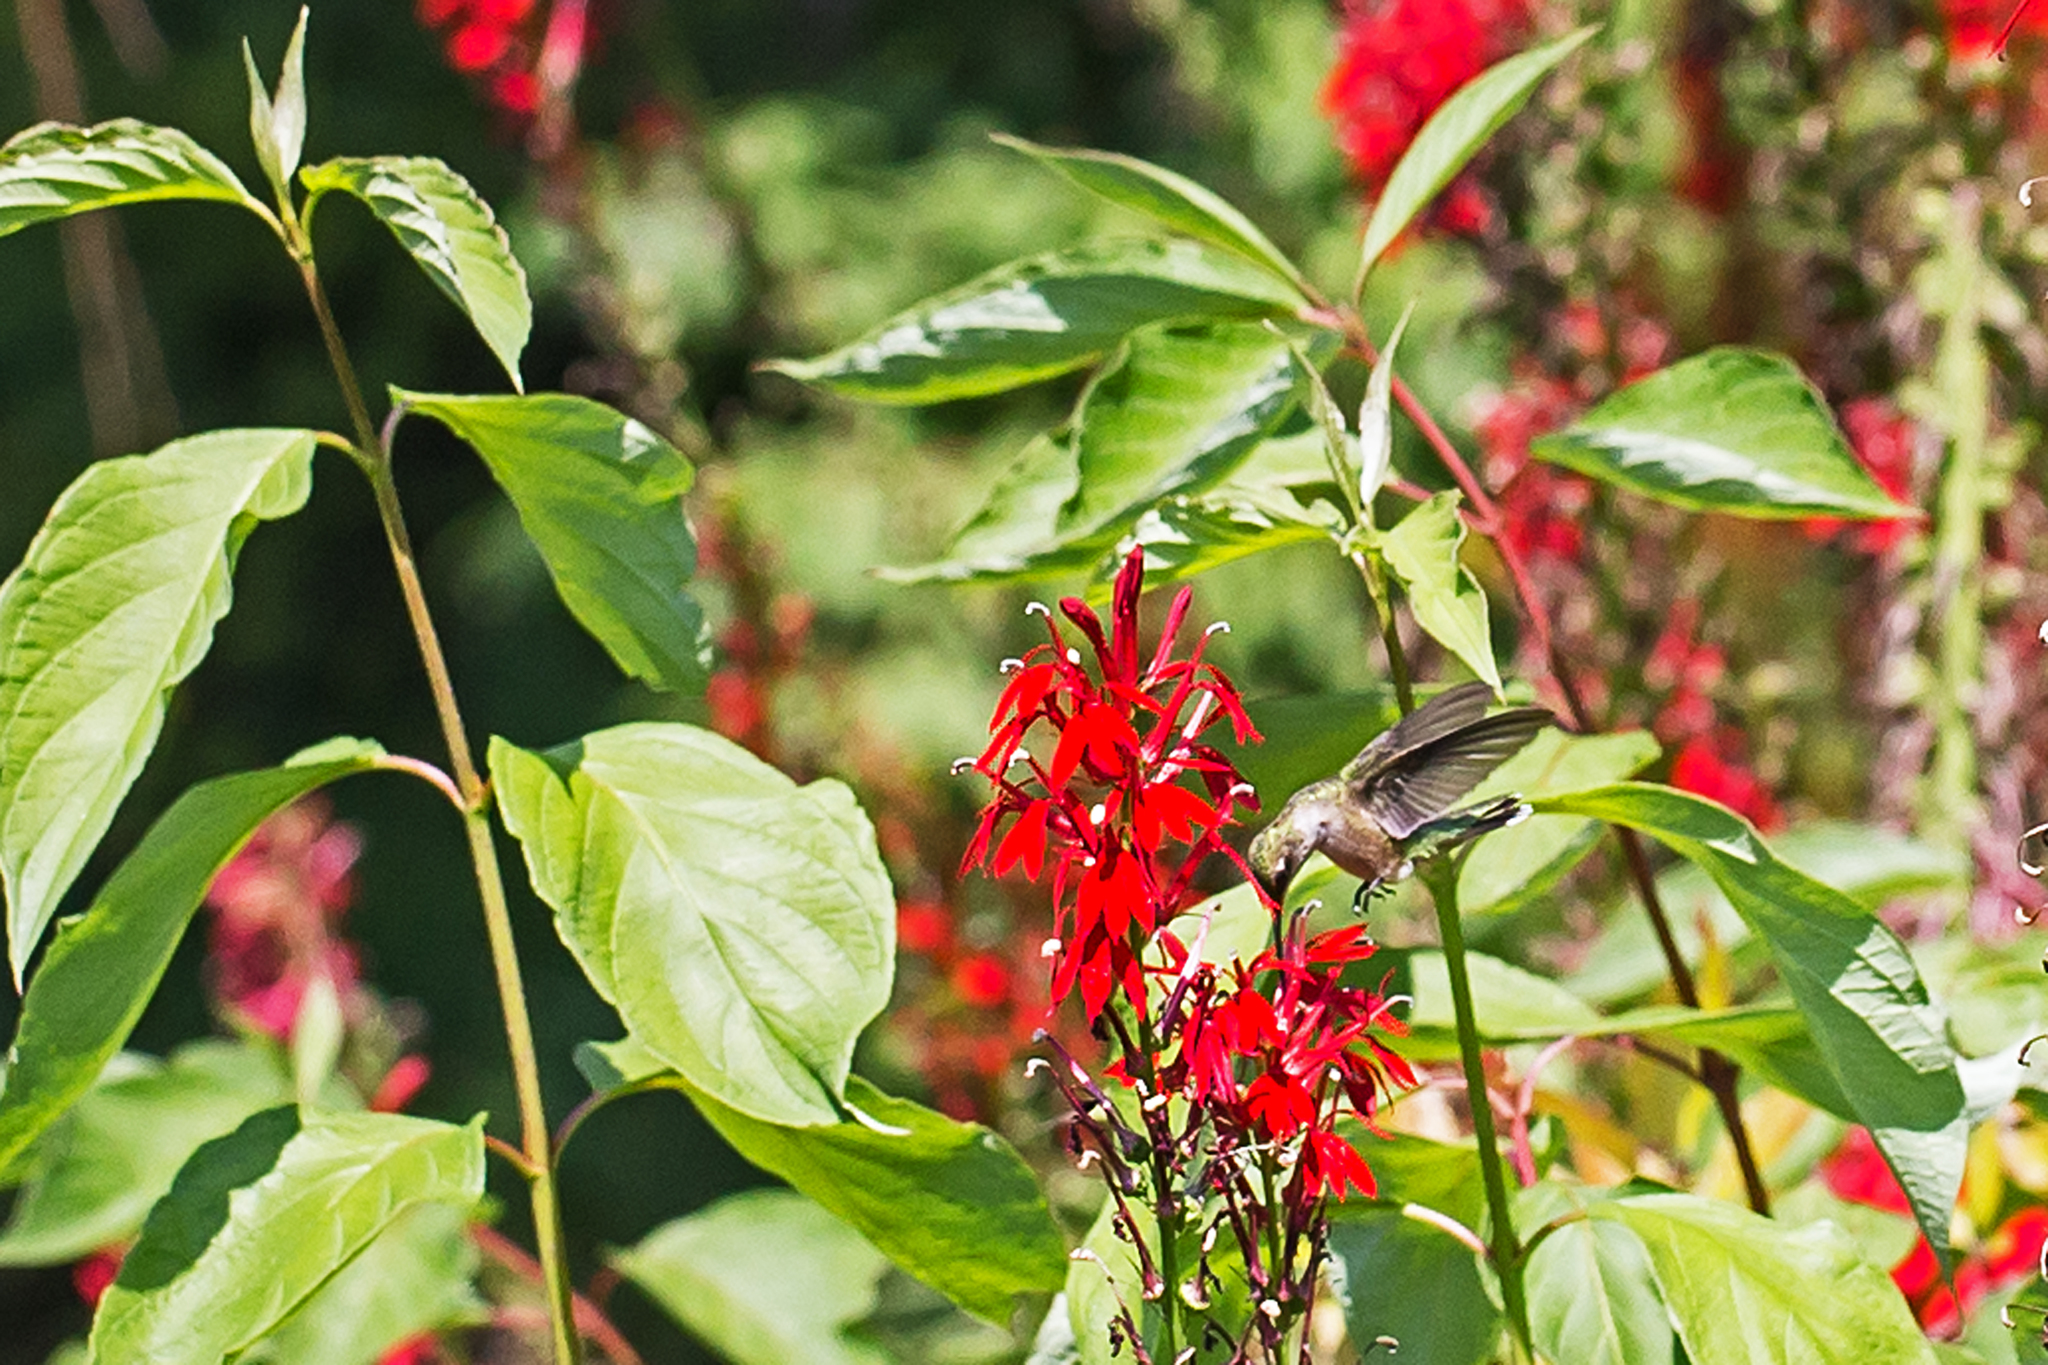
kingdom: Animalia
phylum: Chordata
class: Aves
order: Apodiformes
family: Trochilidae
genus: Archilochus
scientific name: Archilochus colubris
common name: Ruby-throated hummingbird
